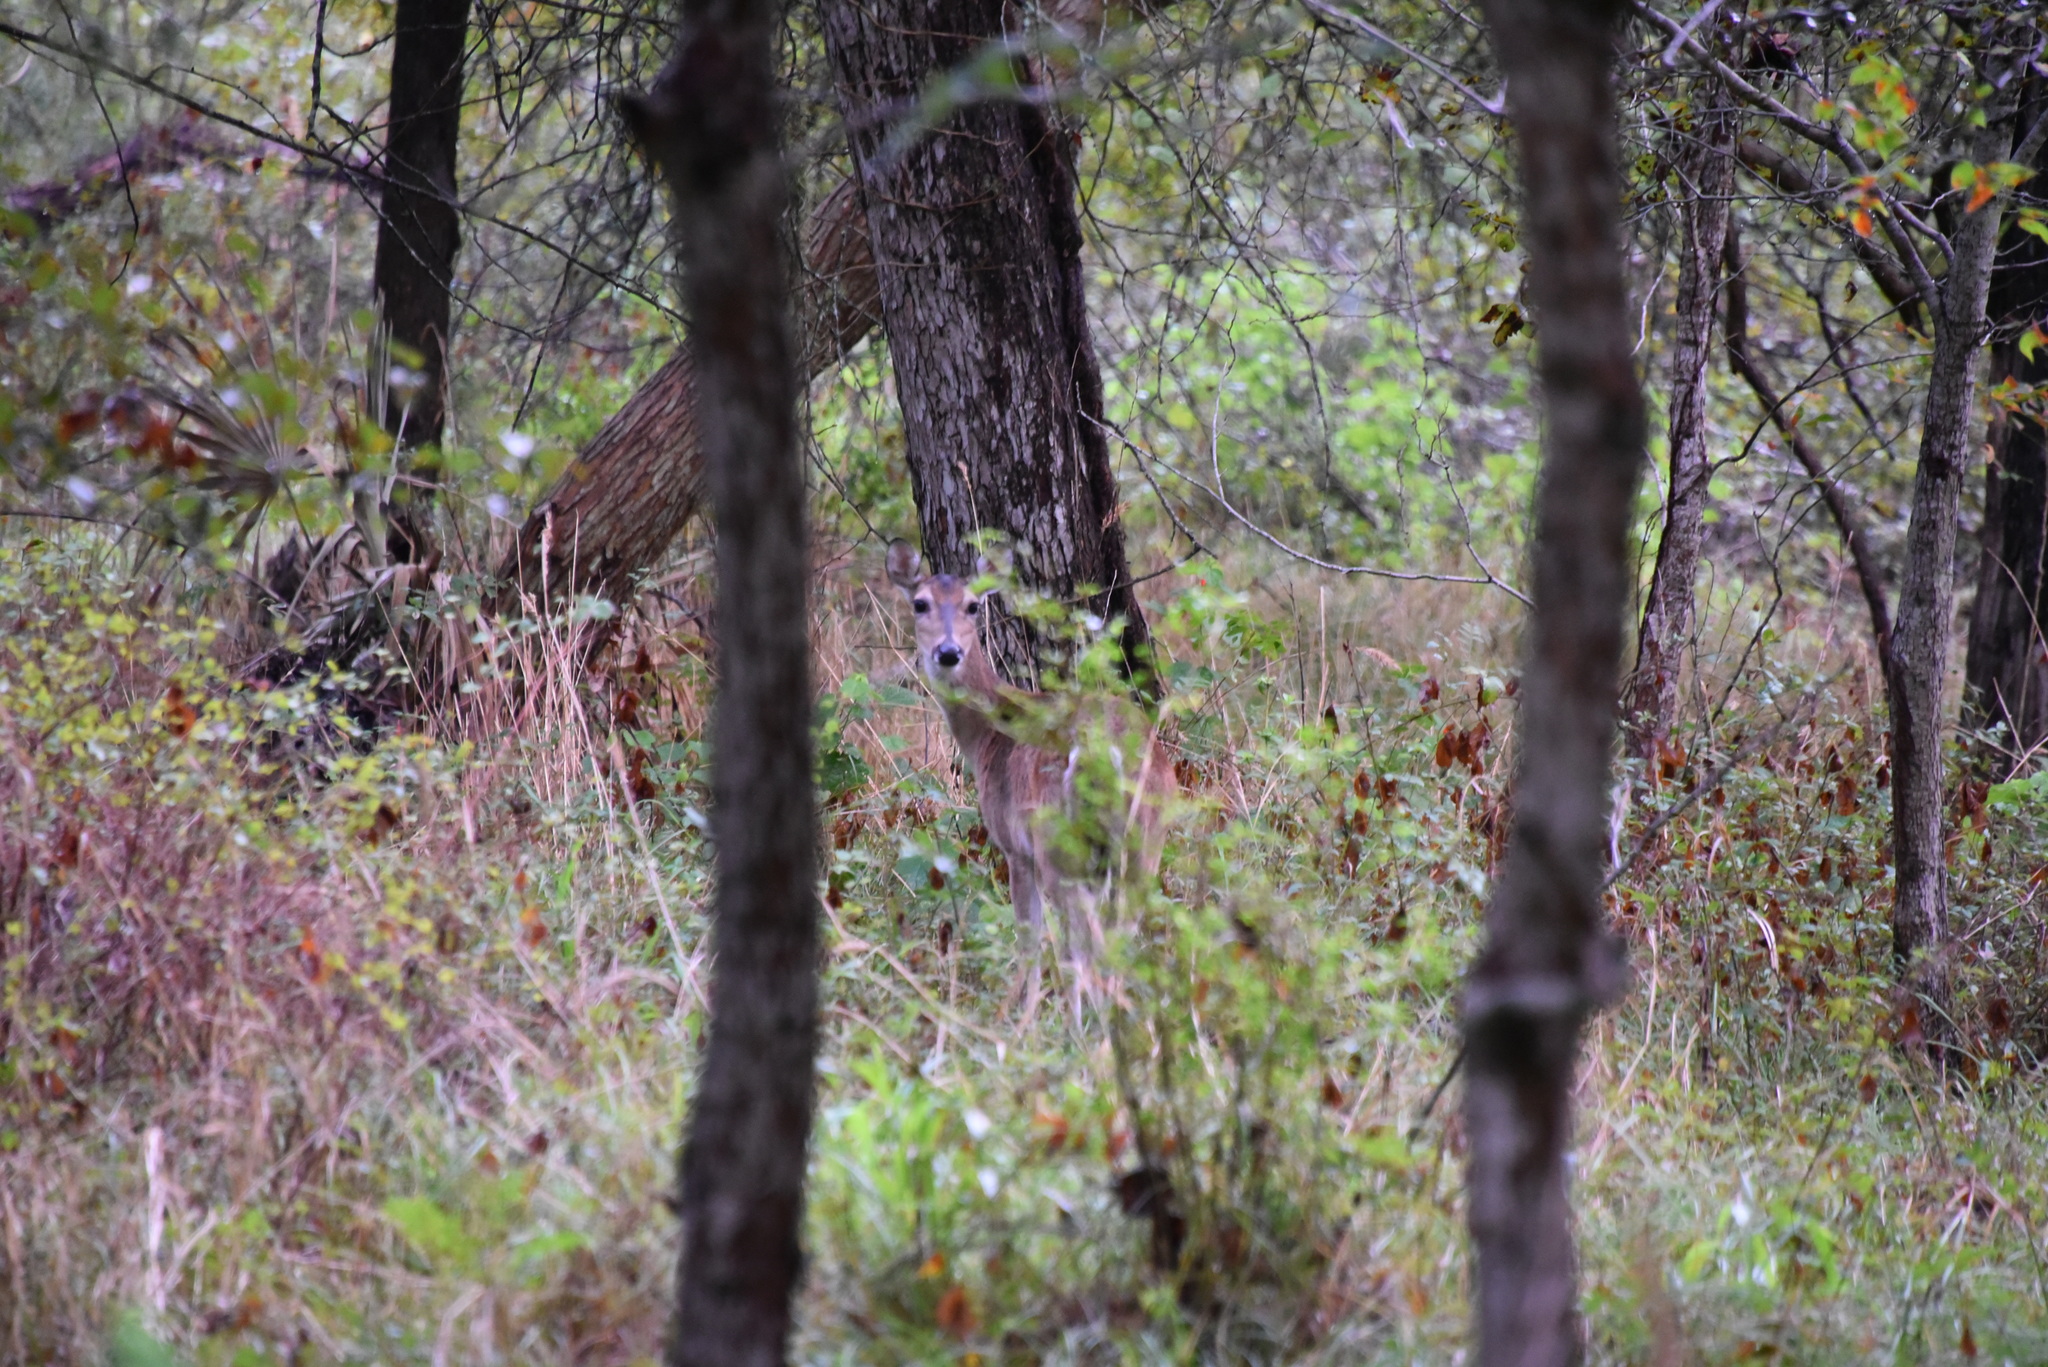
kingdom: Animalia
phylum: Chordata
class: Mammalia
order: Artiodactyla
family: Cervidae
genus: Odocoileus
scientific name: Odocoileus virginianus
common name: White-tailed deer
